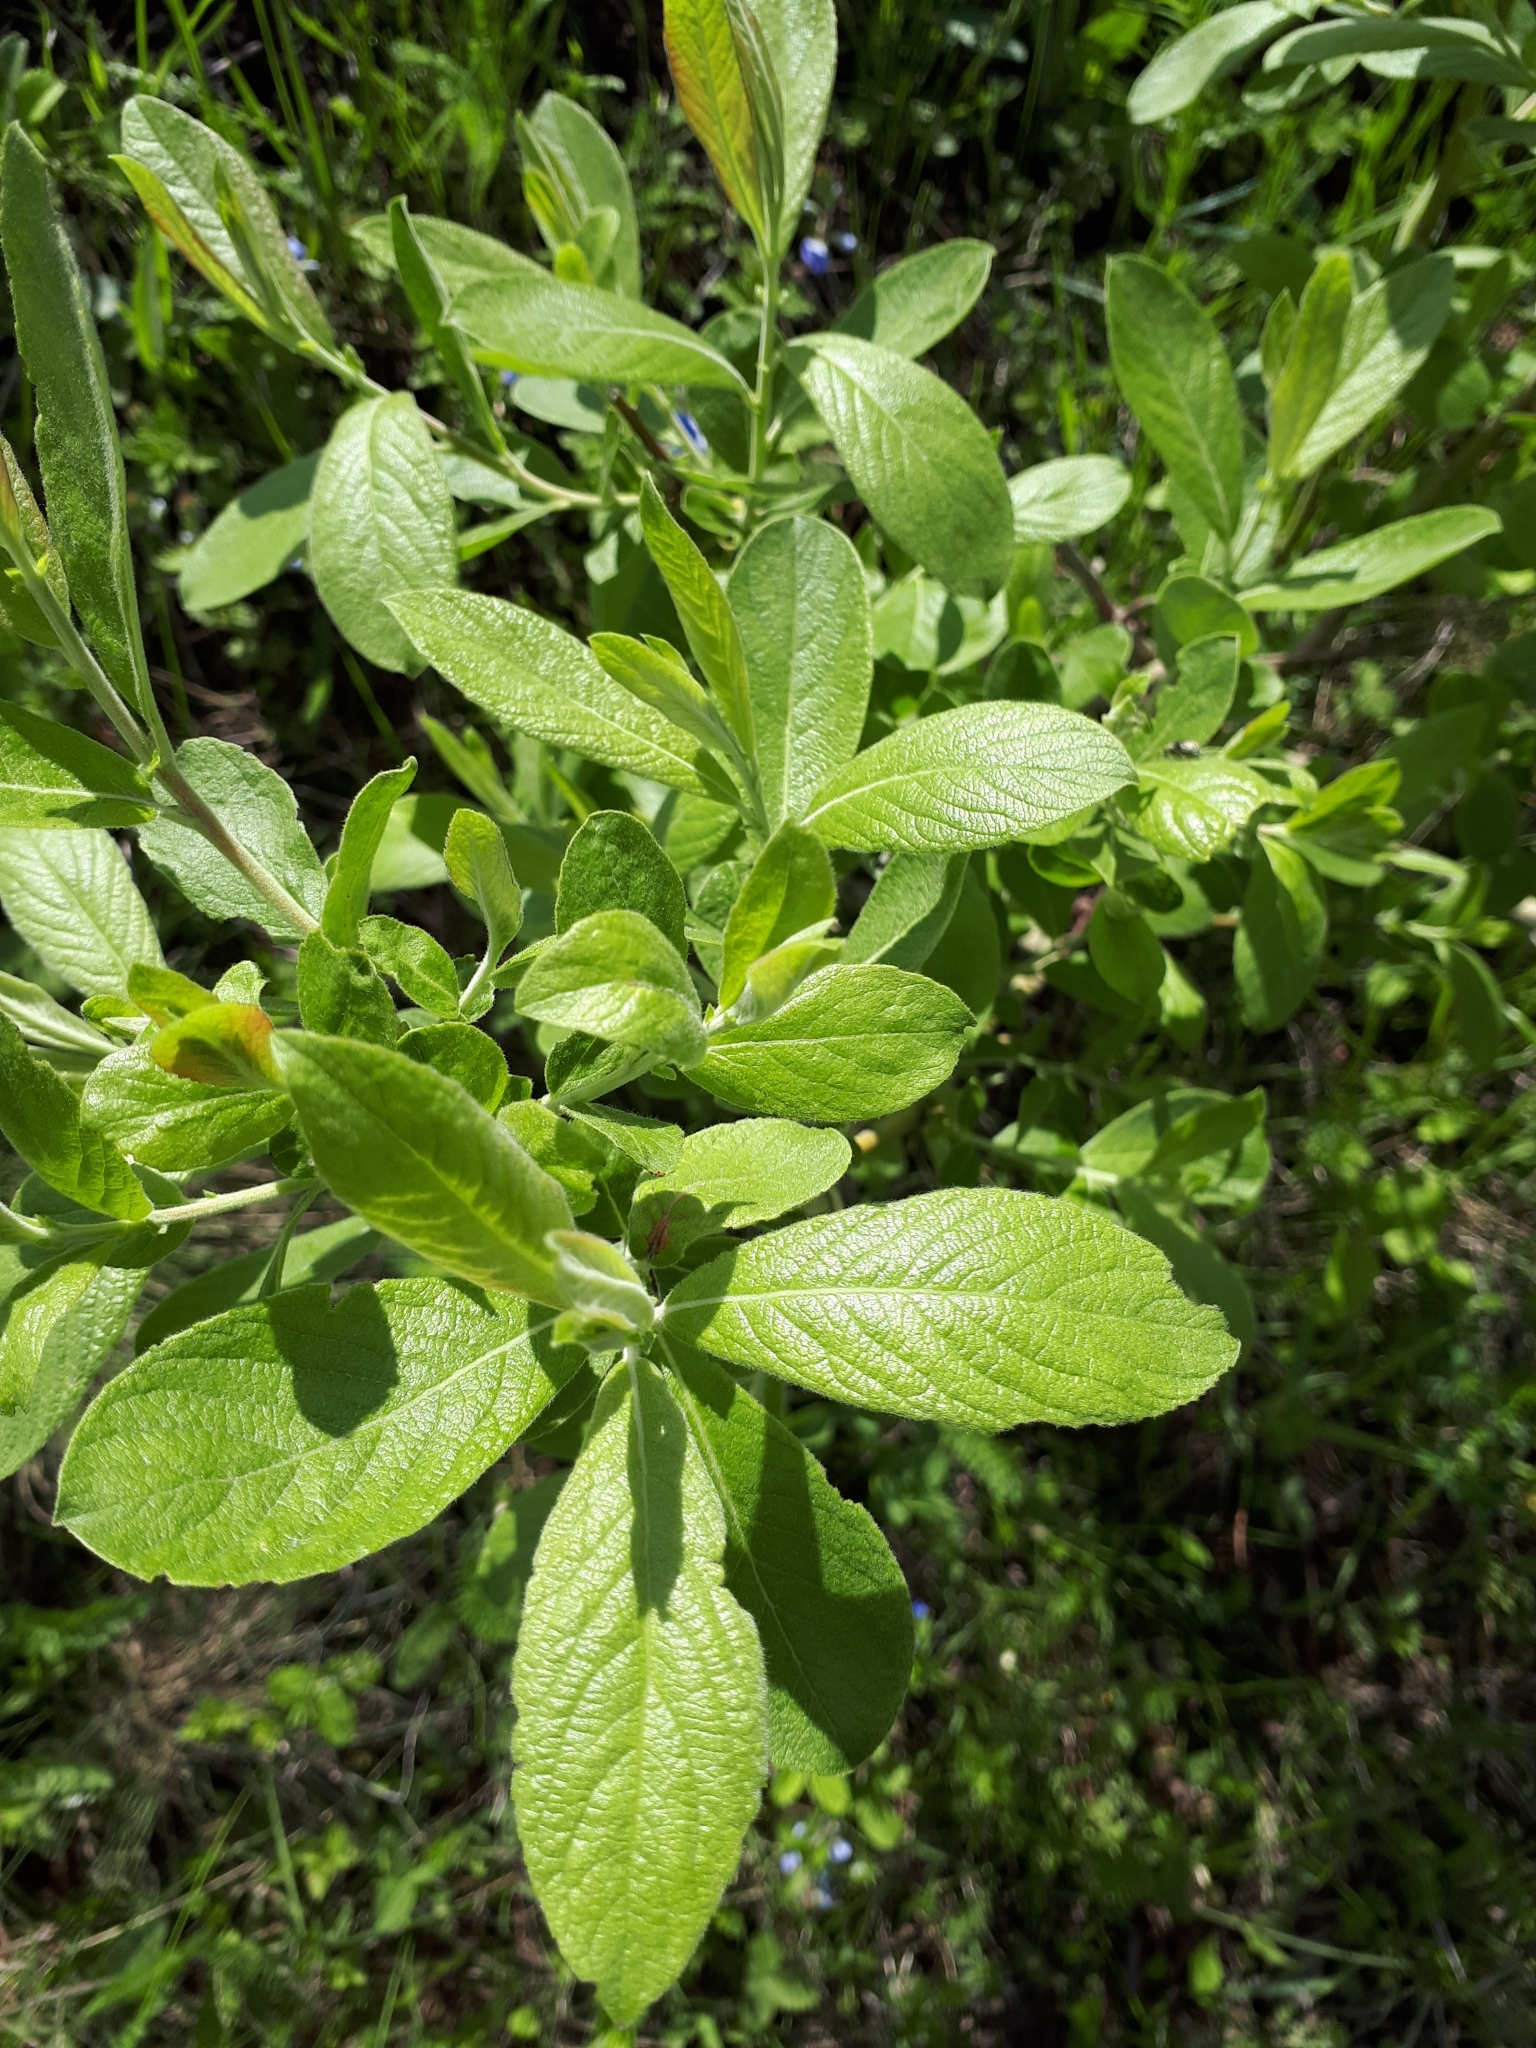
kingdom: Plantae
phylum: Tracheophyta
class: Magnoliopsida
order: Malpighiales
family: Salicaceae
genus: Salix
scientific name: Salix cinerea
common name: Common sallow
